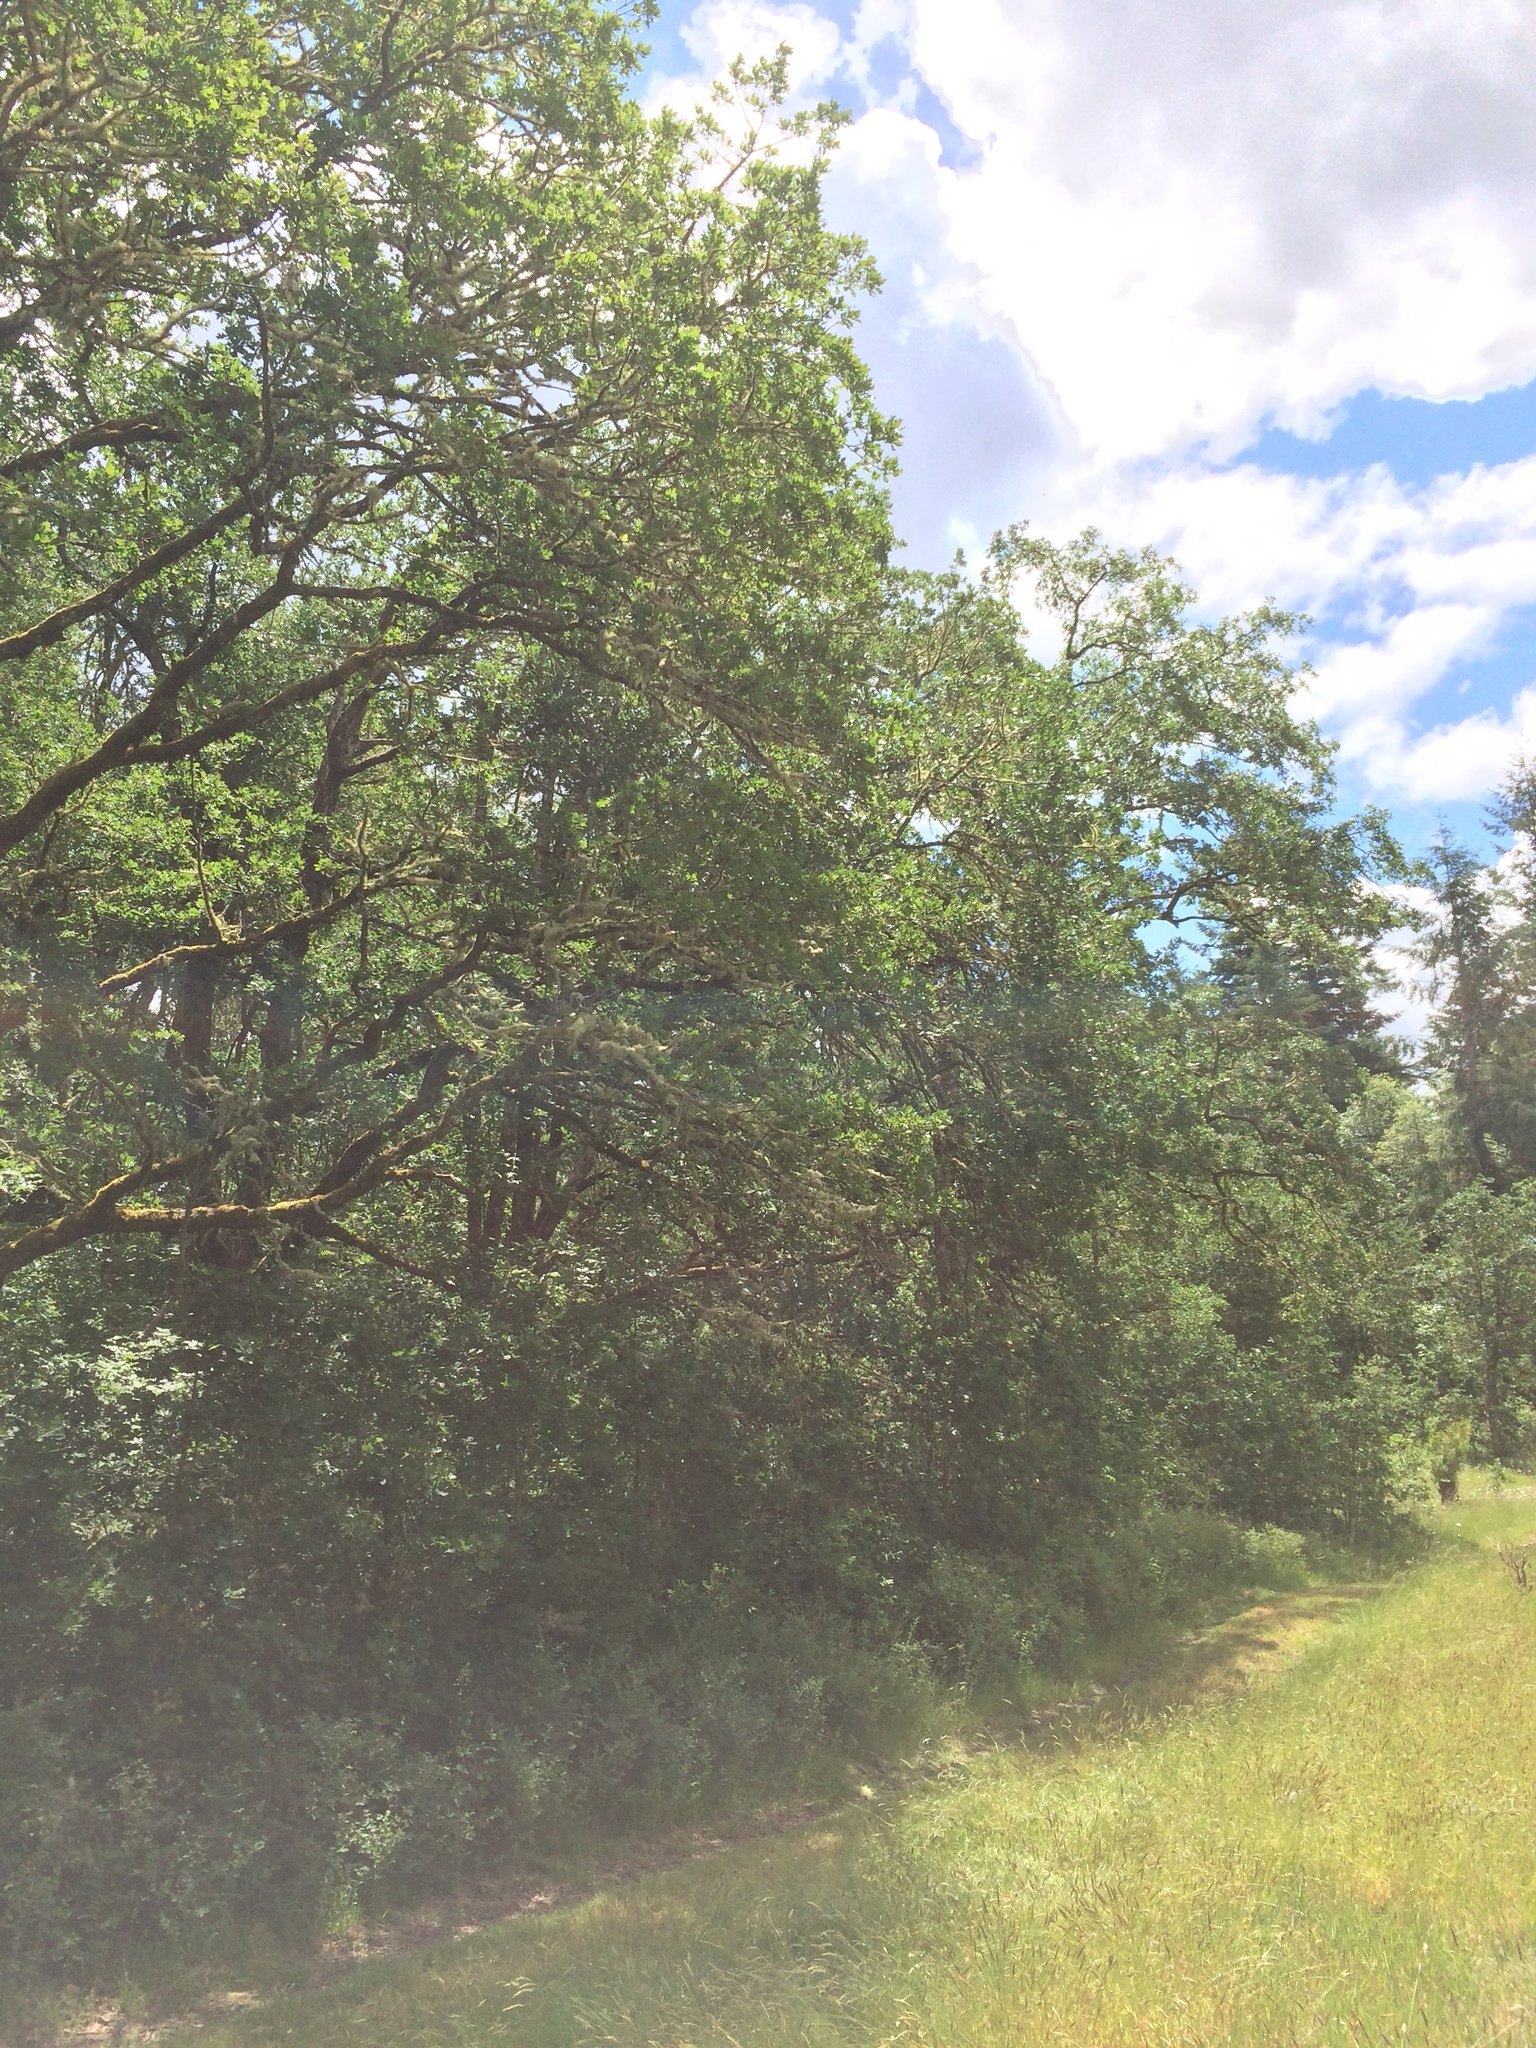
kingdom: Plantae
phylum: Tracheophyta
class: Magnoliopsida
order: Fagales
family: Fagaceae
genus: Quercus
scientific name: Quercus garryana
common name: Garry oak
